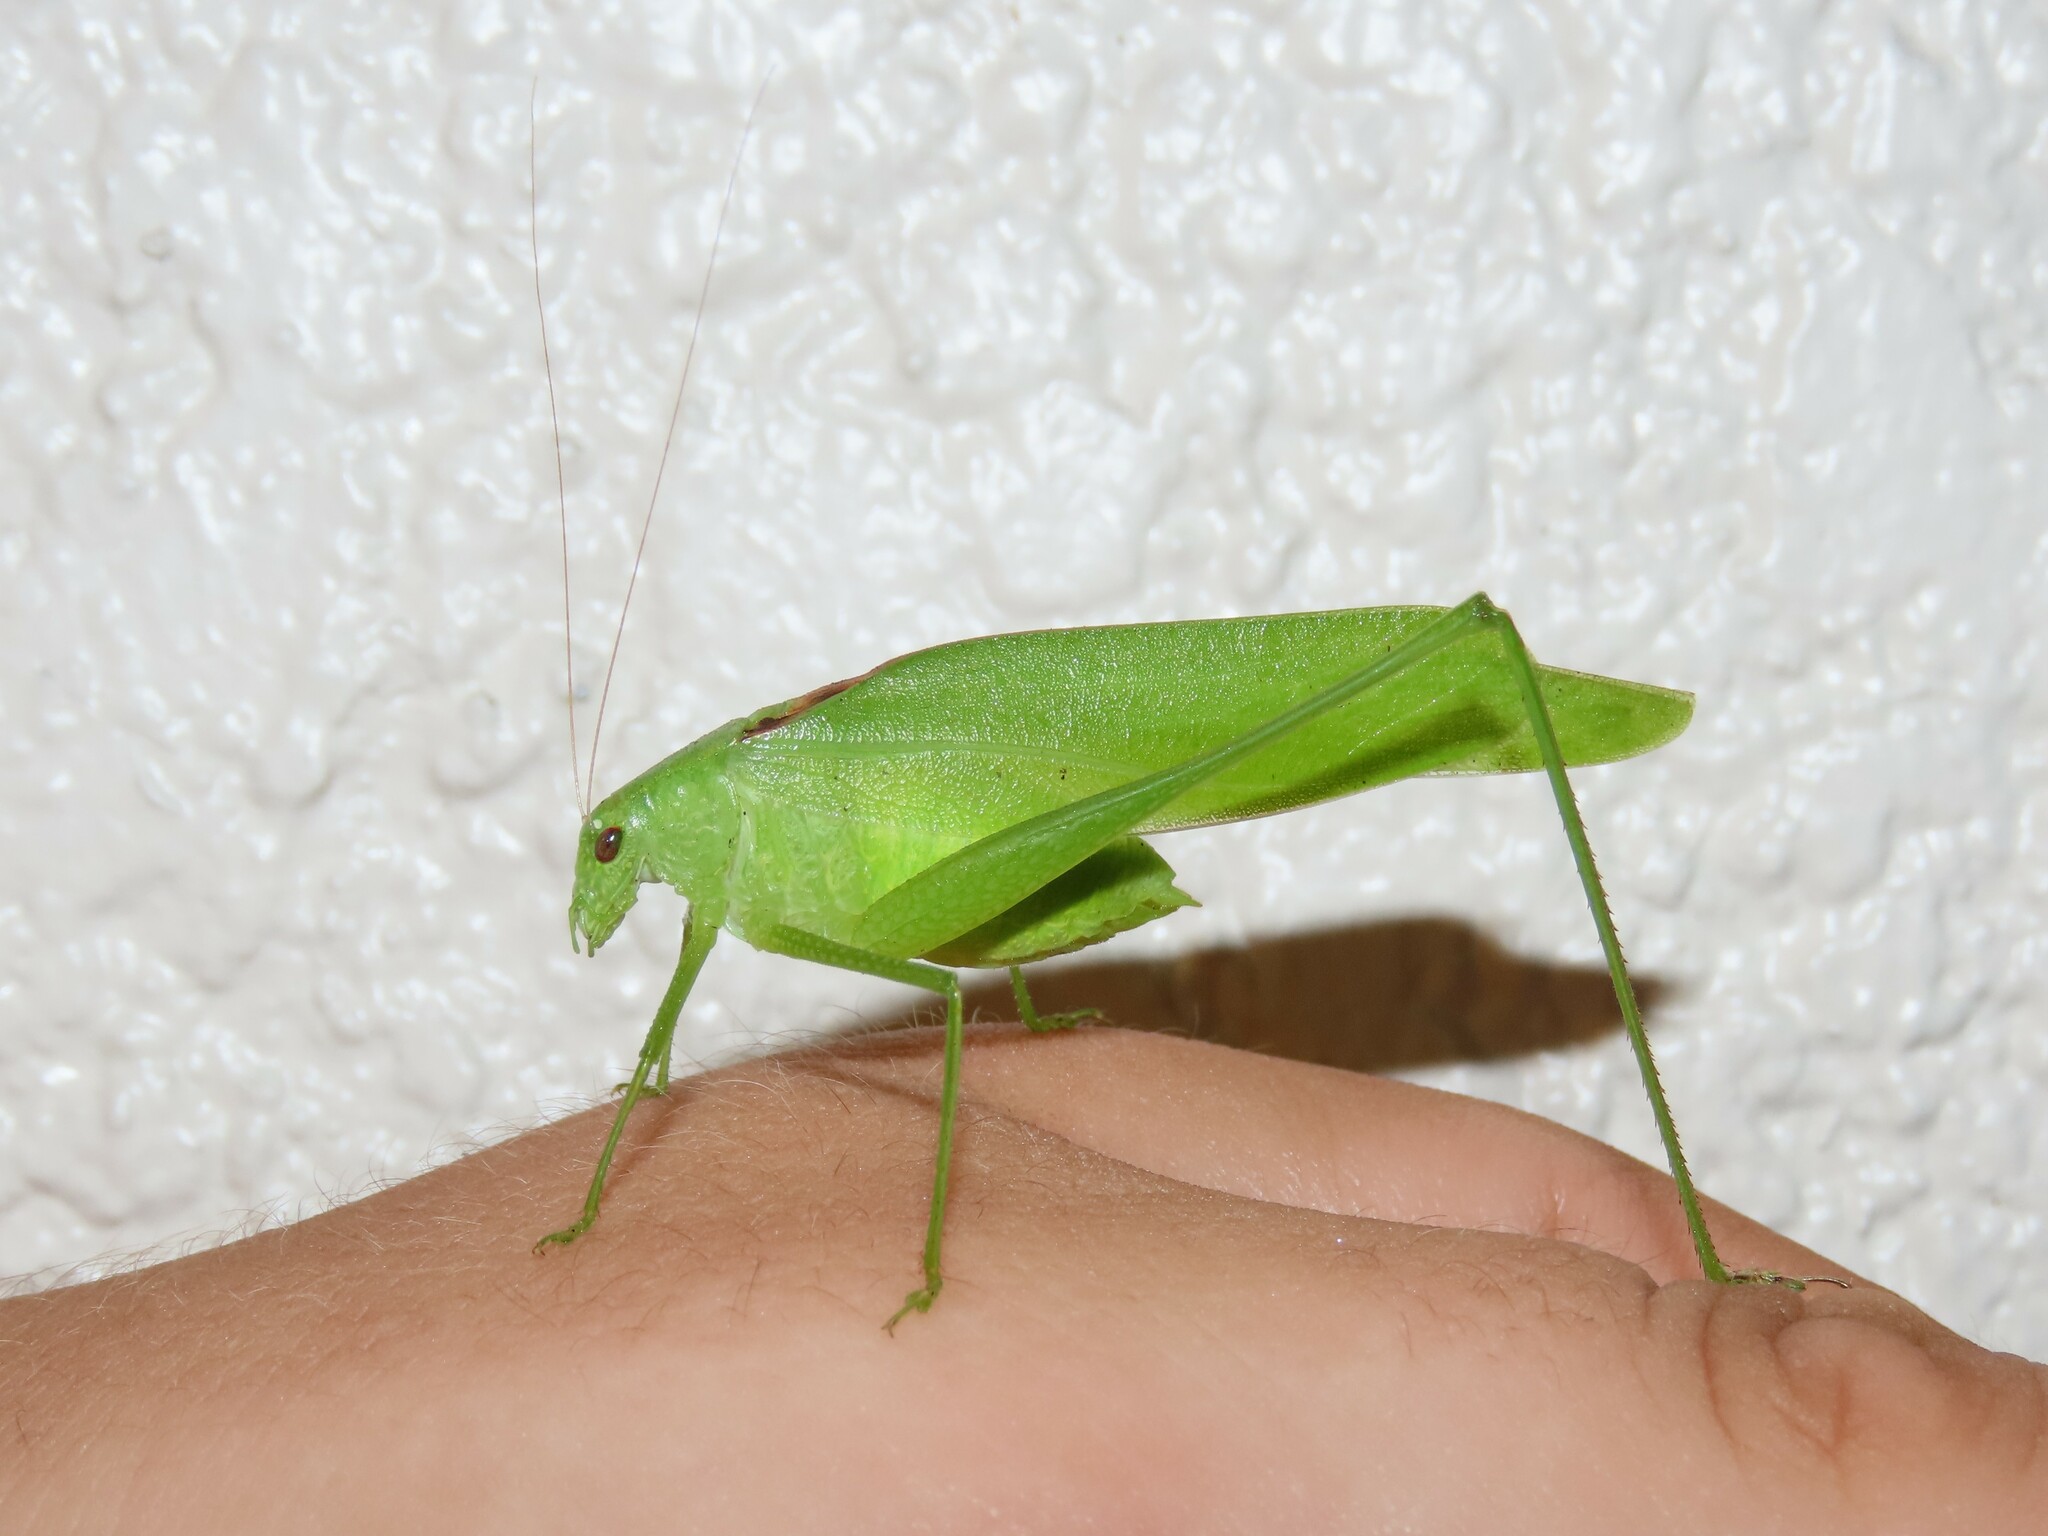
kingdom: Animalia
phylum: Arthropoda
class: Insecta
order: Orthoptera
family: Tettigoniidae
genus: Amblycorypha
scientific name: Amblycorypha floridana
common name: Florida false katydid
